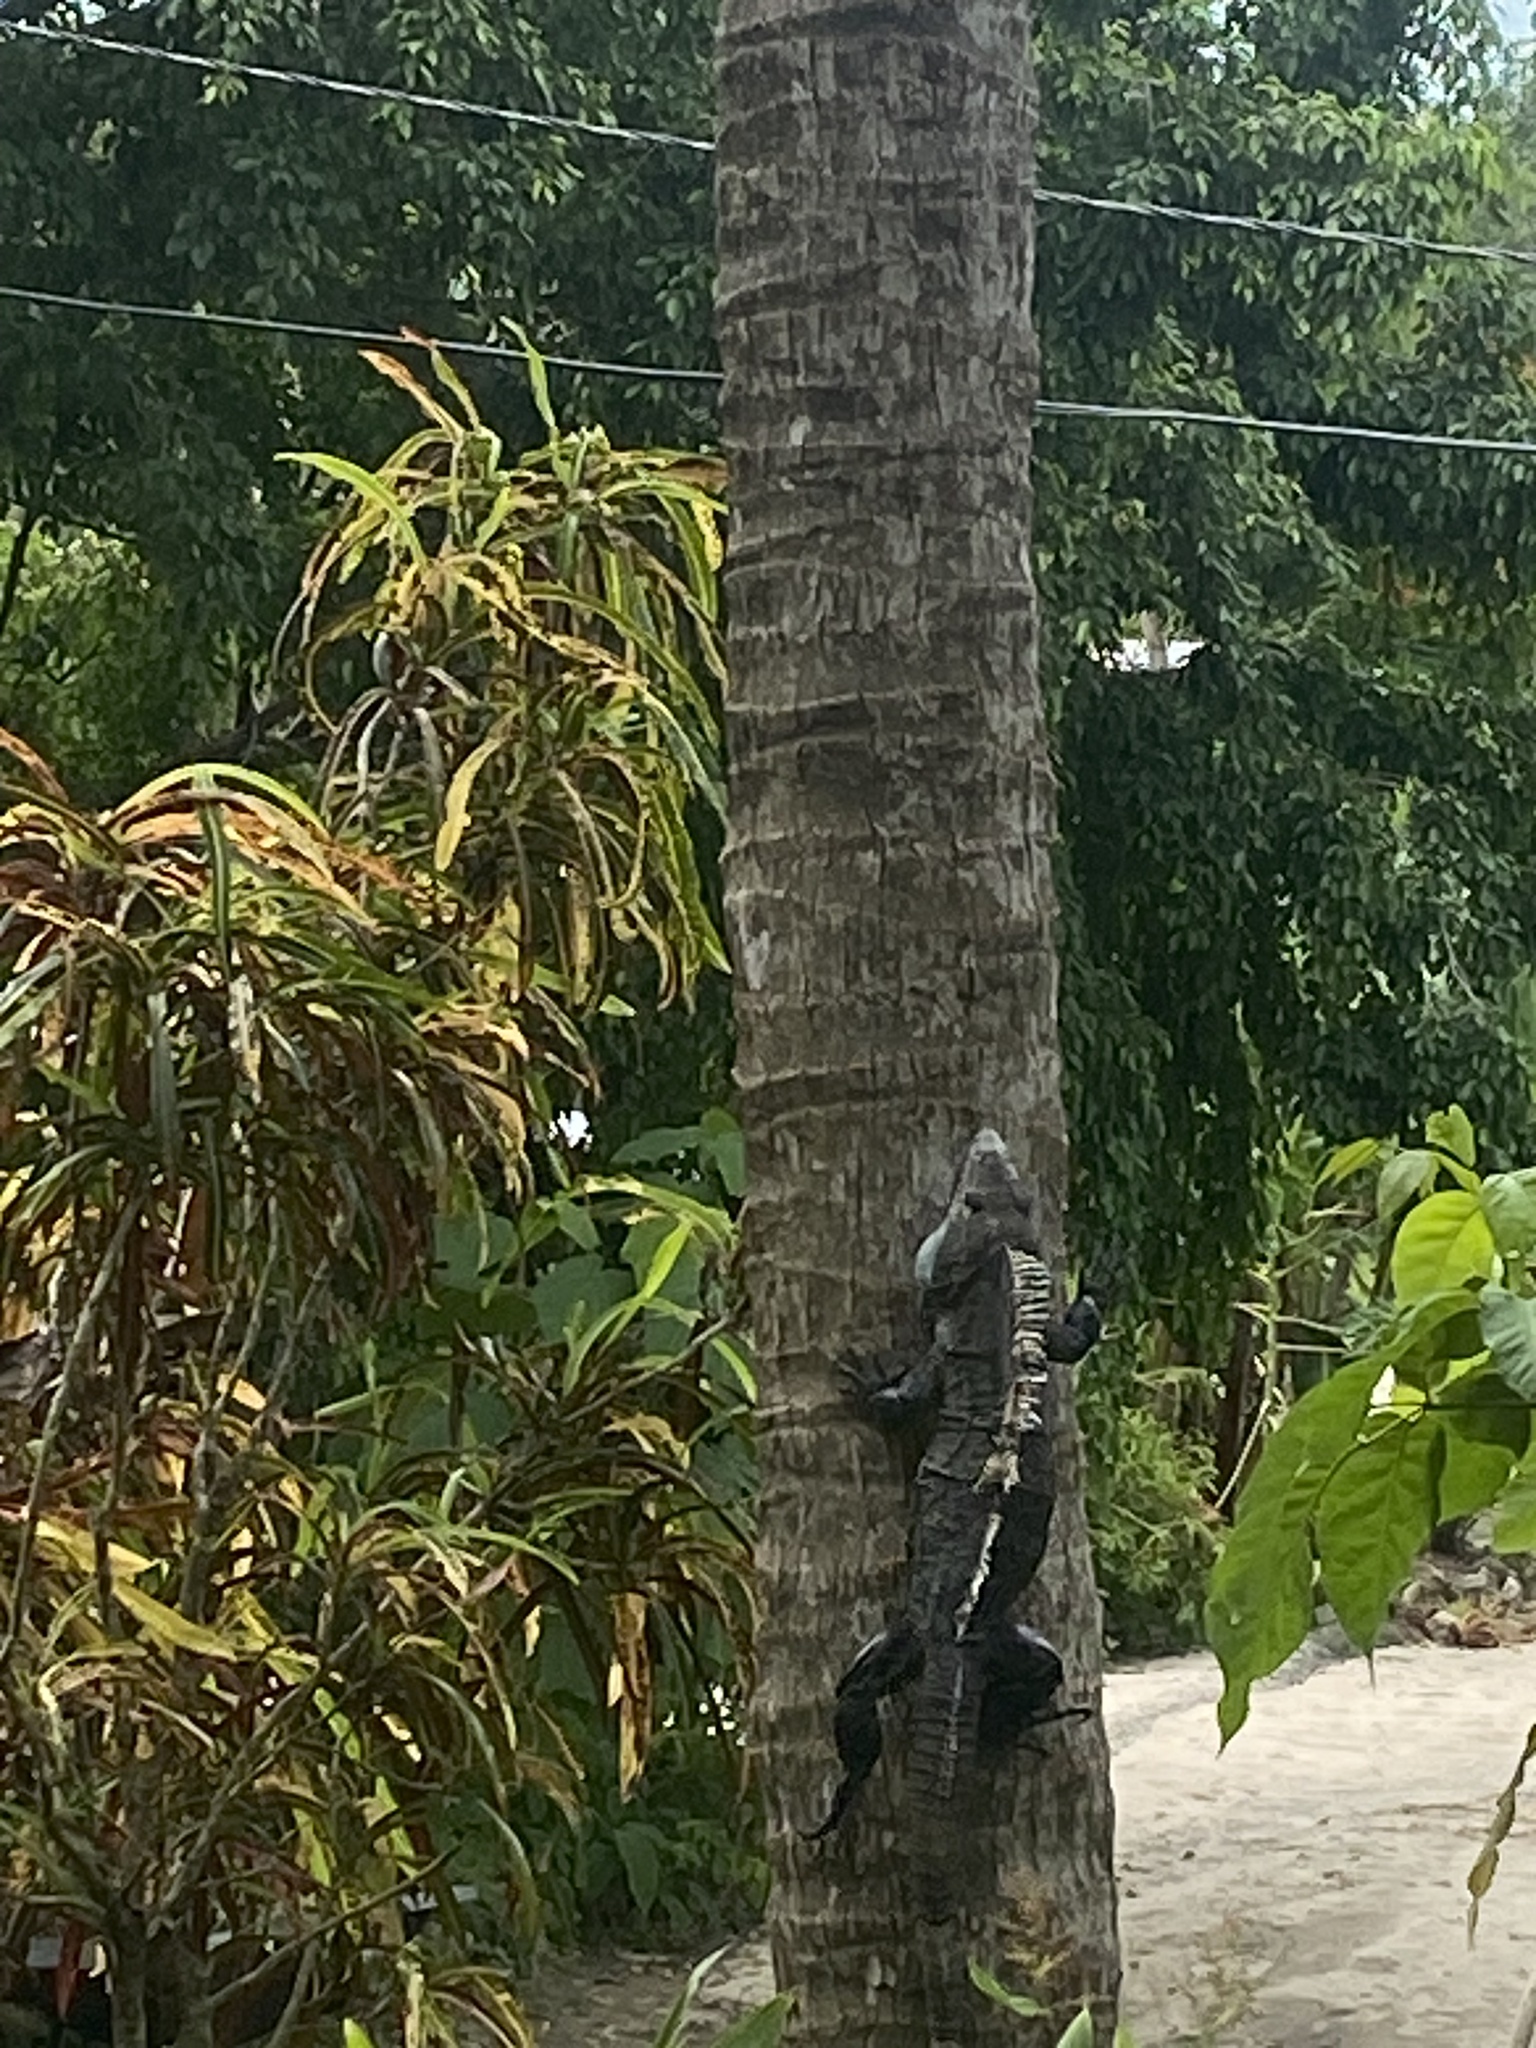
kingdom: Animalia
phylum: Chordata
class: Squamata
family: Iguanidae
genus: Ctenosaura
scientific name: Ctenosaura similis
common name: Black spiny-tailed iguana
